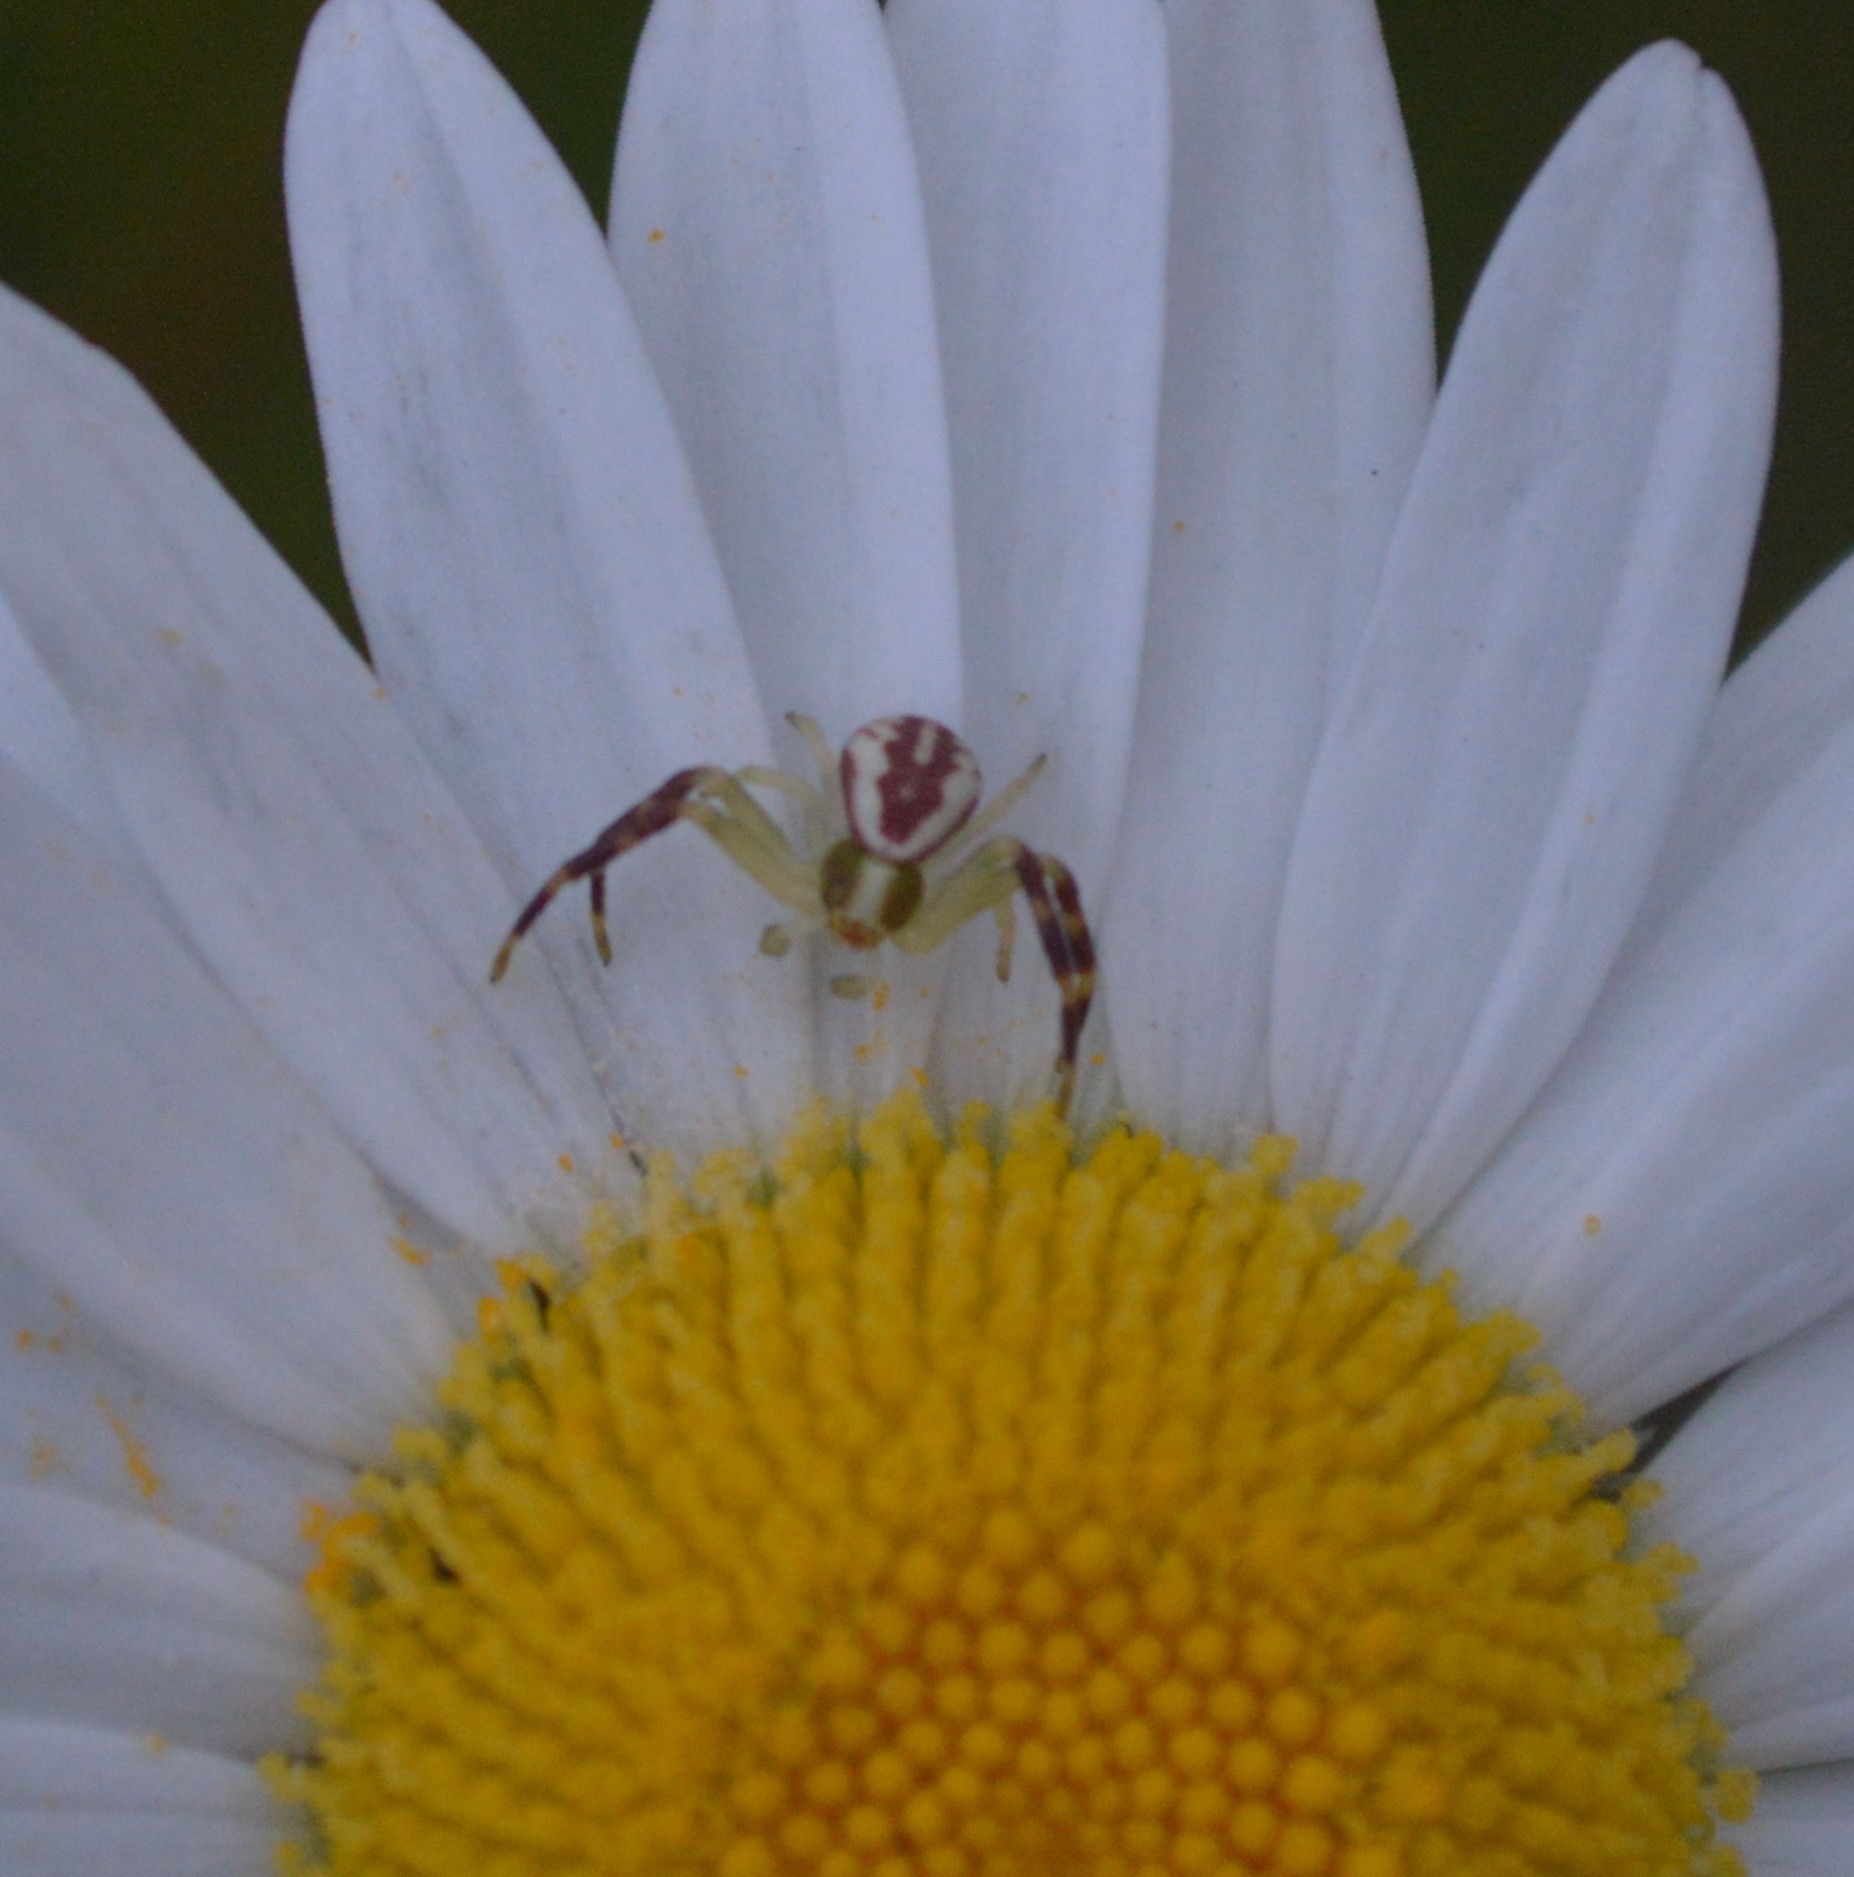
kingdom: Animalia
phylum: Arthropoda
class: Arachnida
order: Araneae
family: Thomisidae
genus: Misumena
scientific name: Misumena vatia
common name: Goldenrod crab spider
